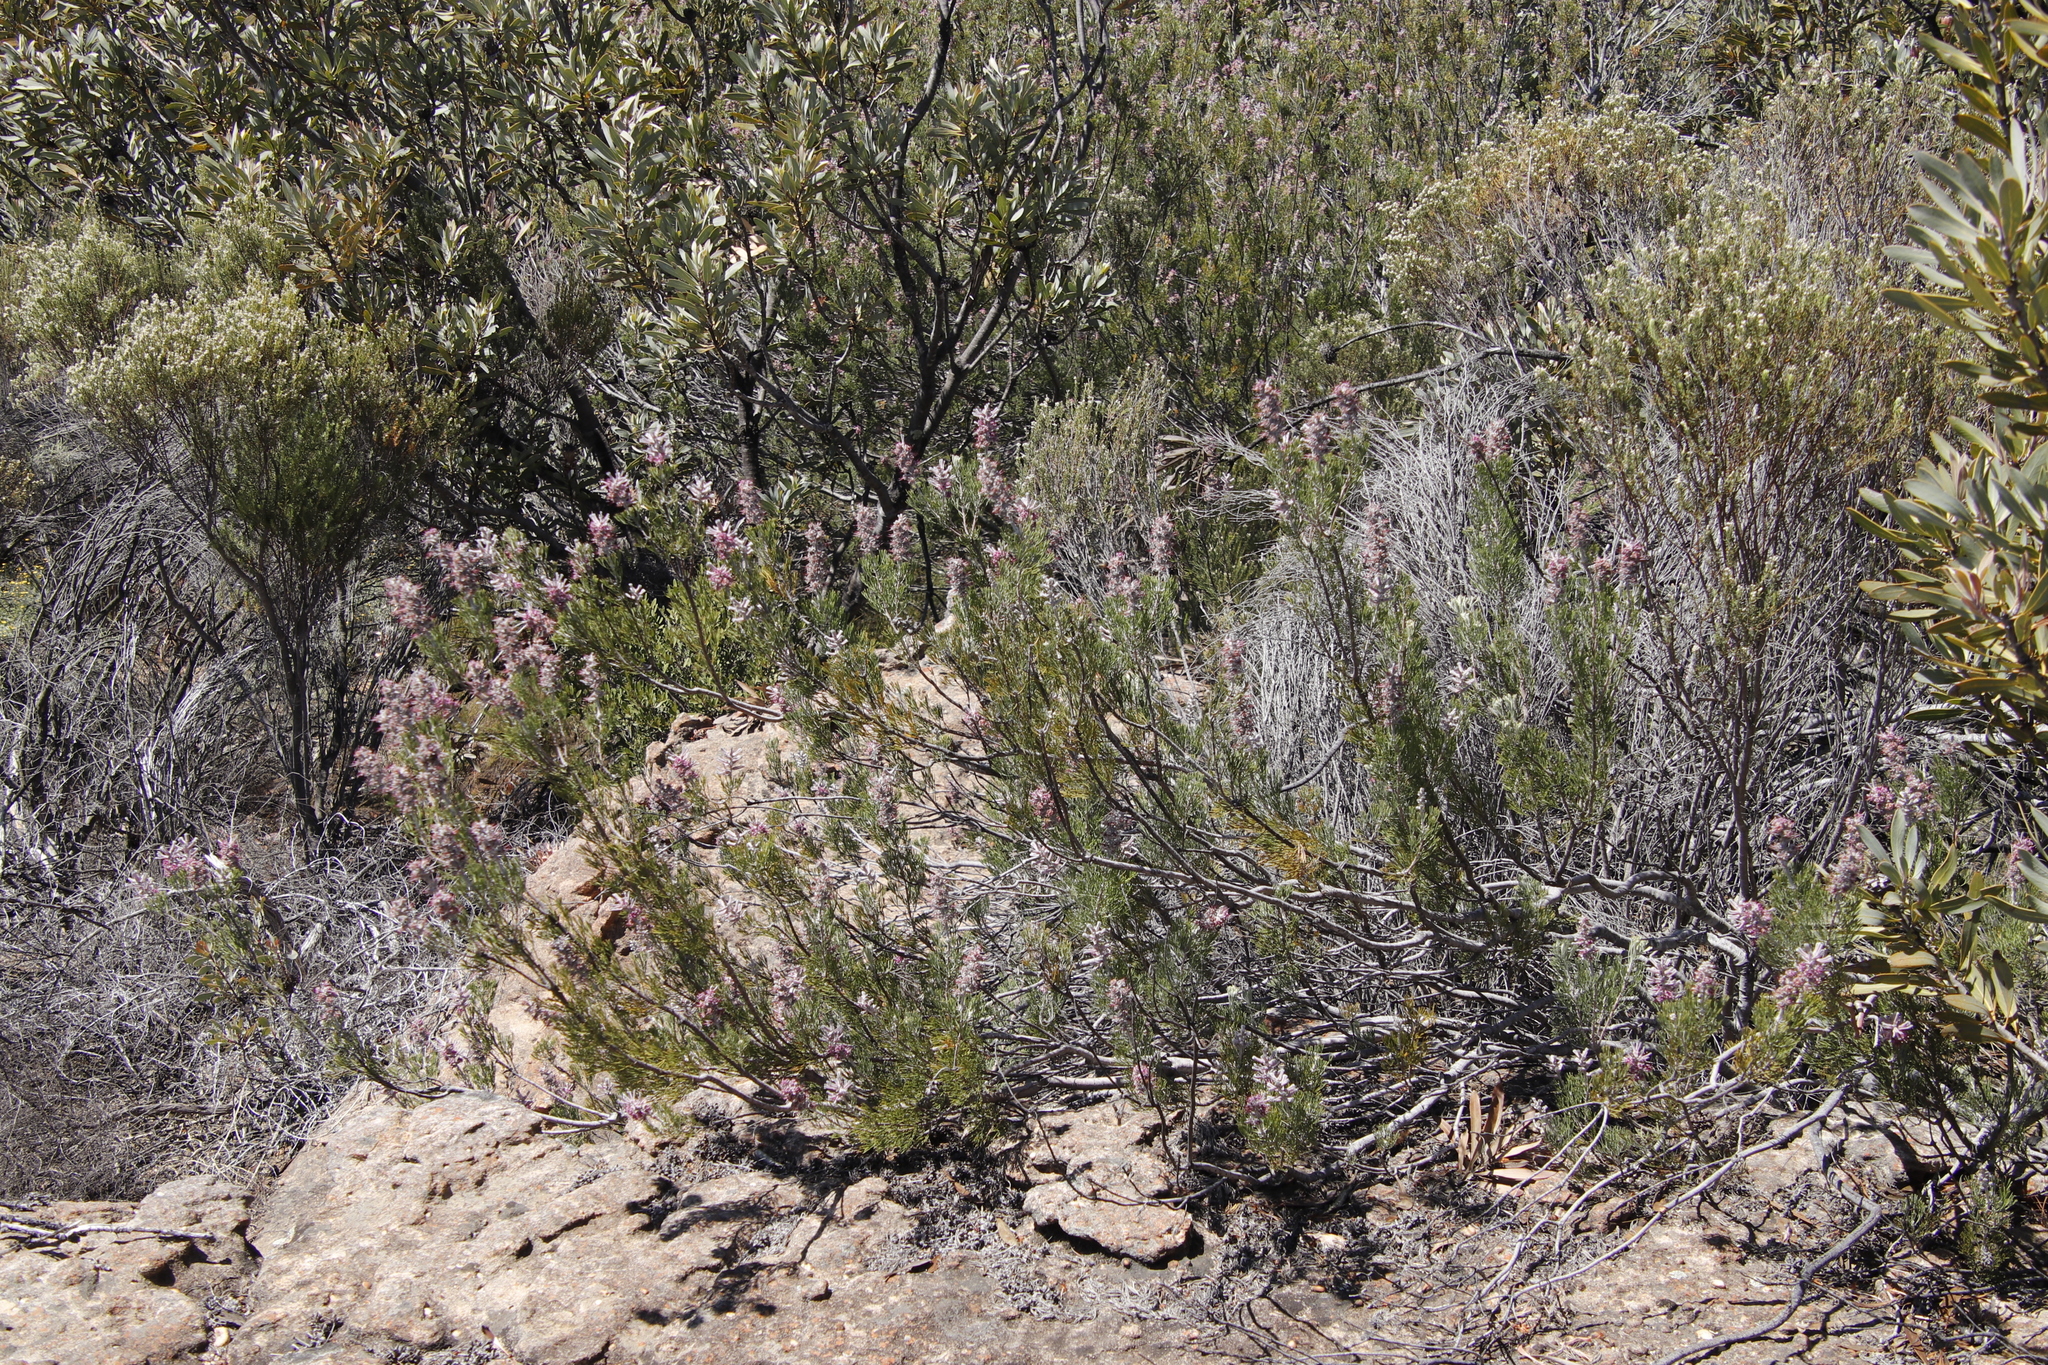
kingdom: Plantae
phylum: Tracheophyta
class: Magnoliopsida
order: Proteales
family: Proteaceae
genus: Paranomus
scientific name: Paranomus bracteolaris
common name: Bokkeveld tree sceptre
